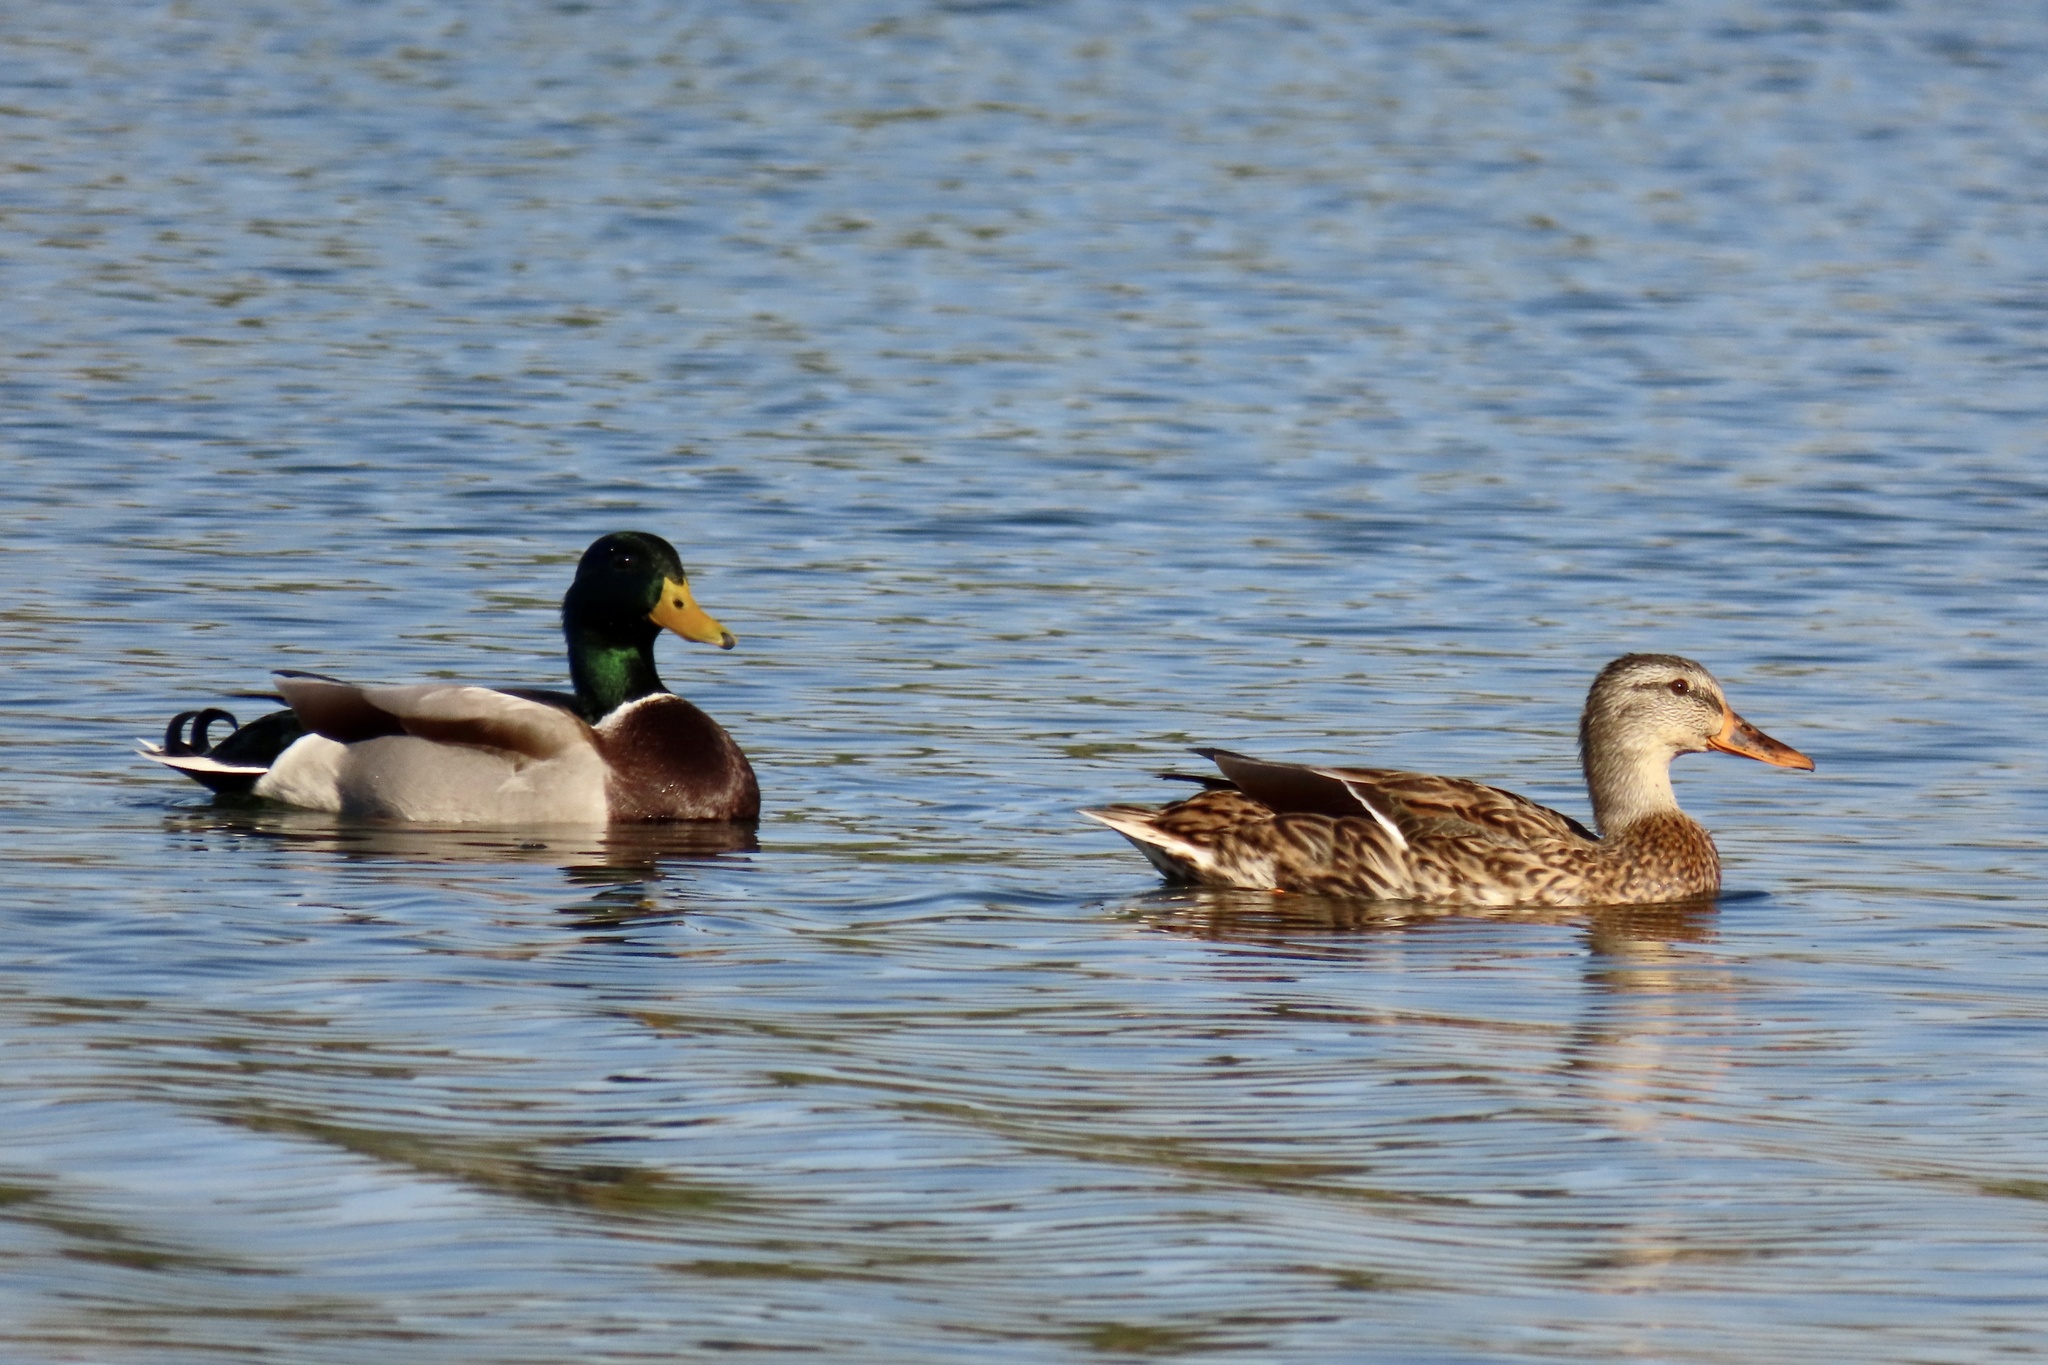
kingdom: Animalia
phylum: Chordata
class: Aves
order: Anseriformes
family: Anatidae
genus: Anas
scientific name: Anas platyrhynchos
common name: Mallard
